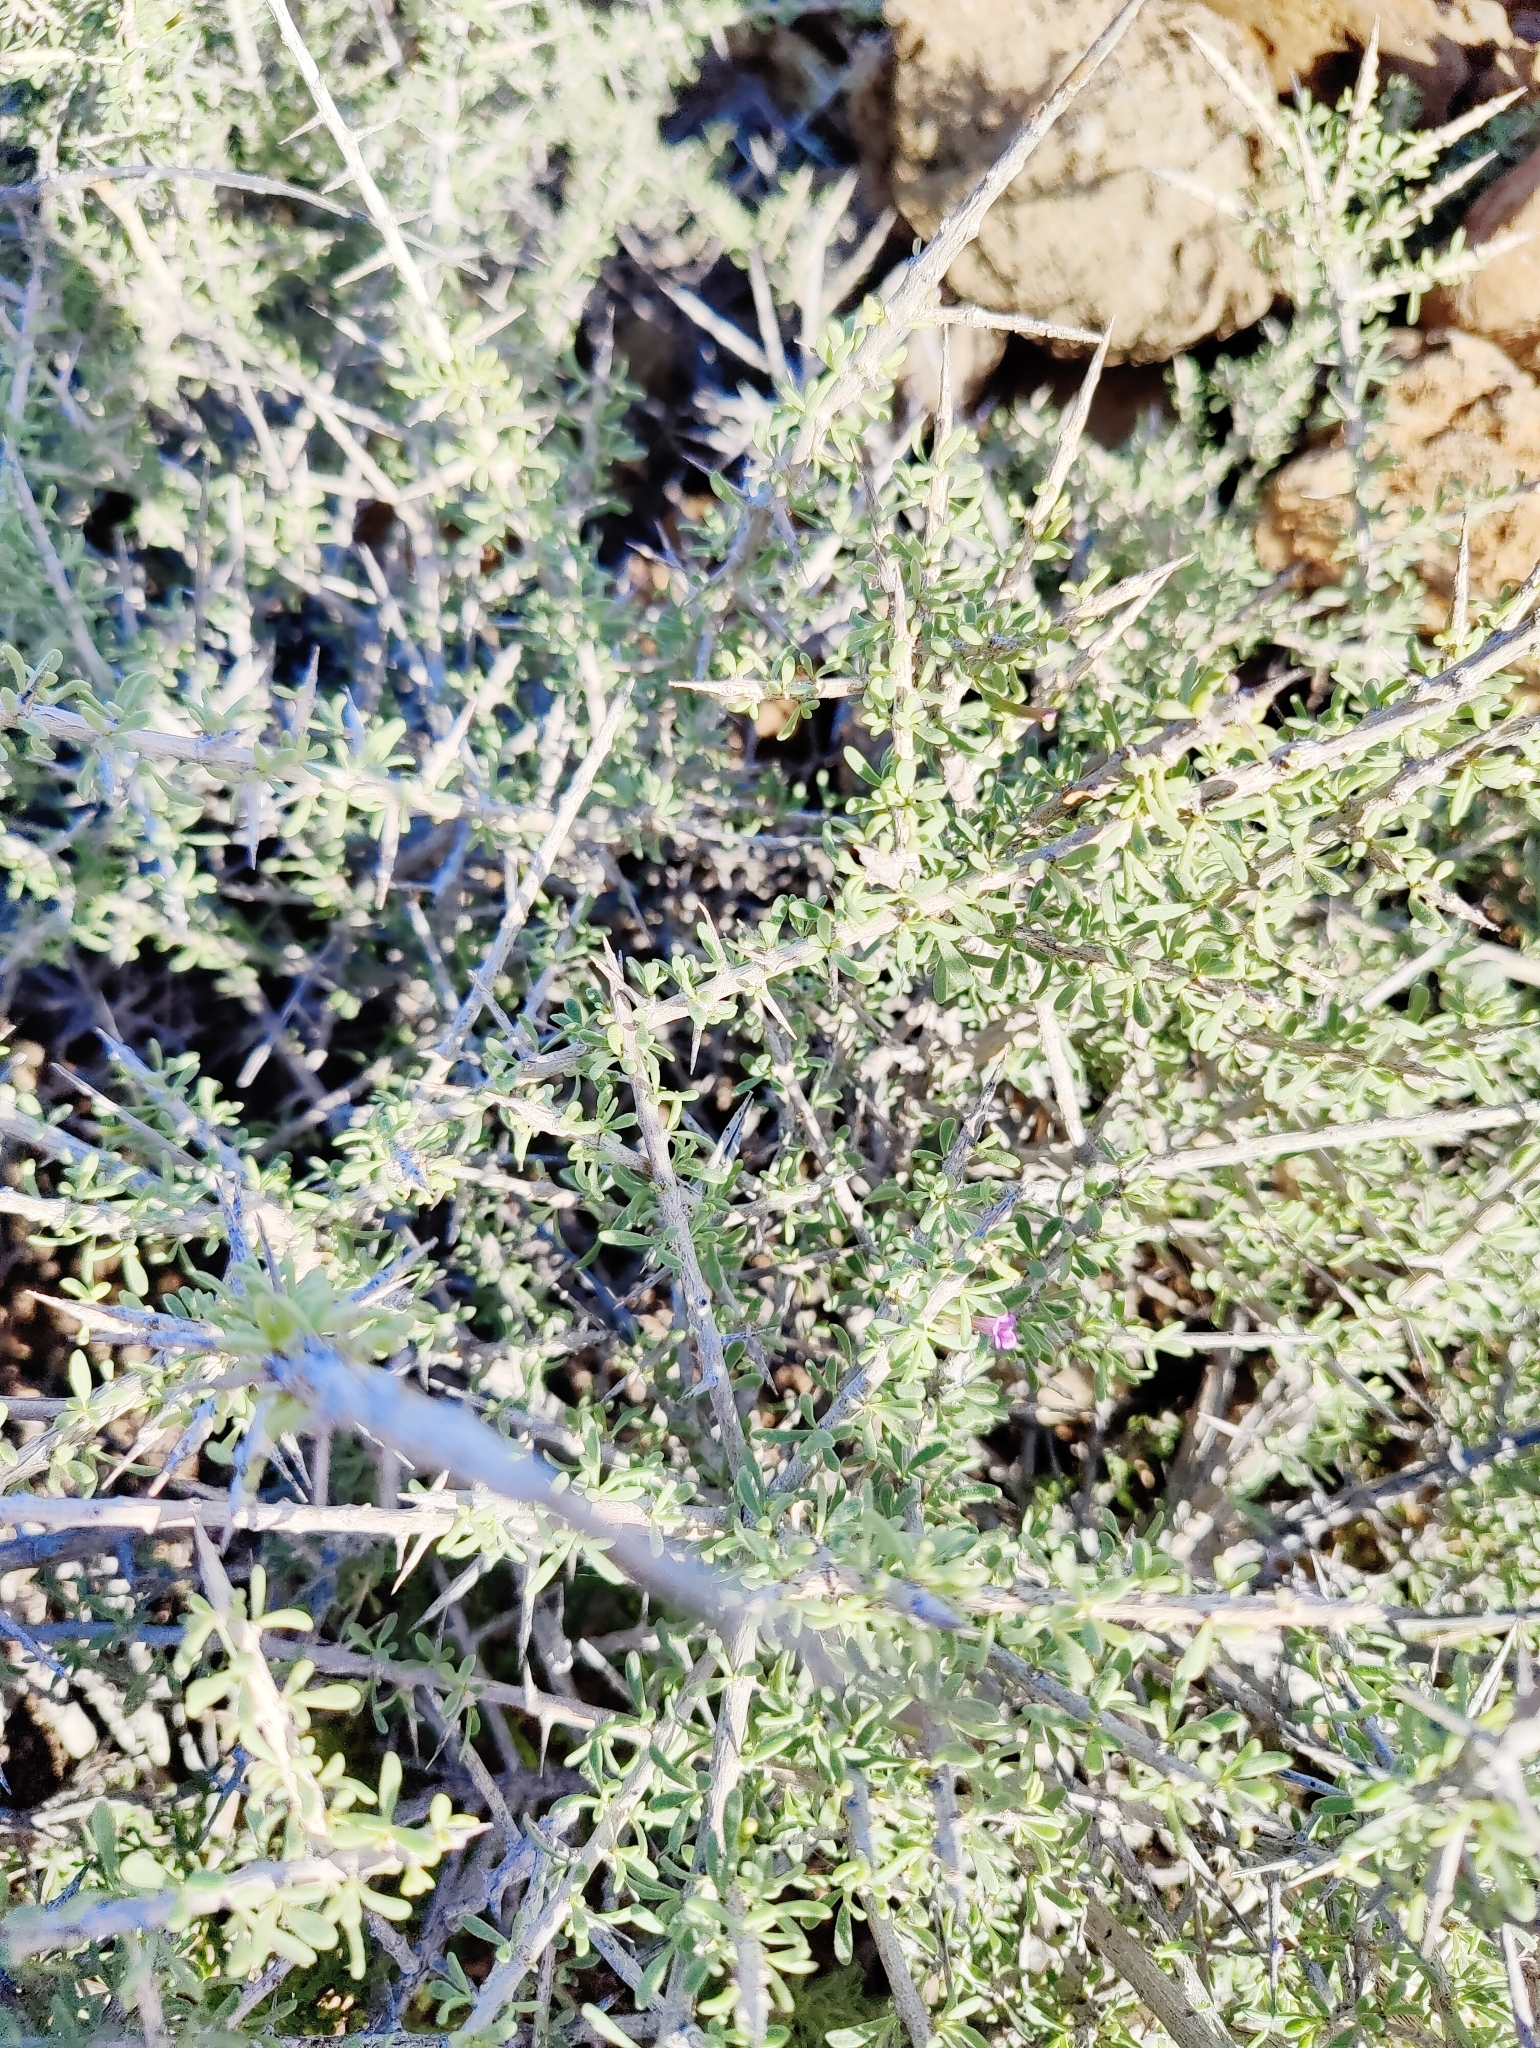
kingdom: Plantae
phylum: Tracheophyta
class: Magnoliopsida
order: Solanales
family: Solanaceae
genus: Lycium
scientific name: Lycium intricatum
